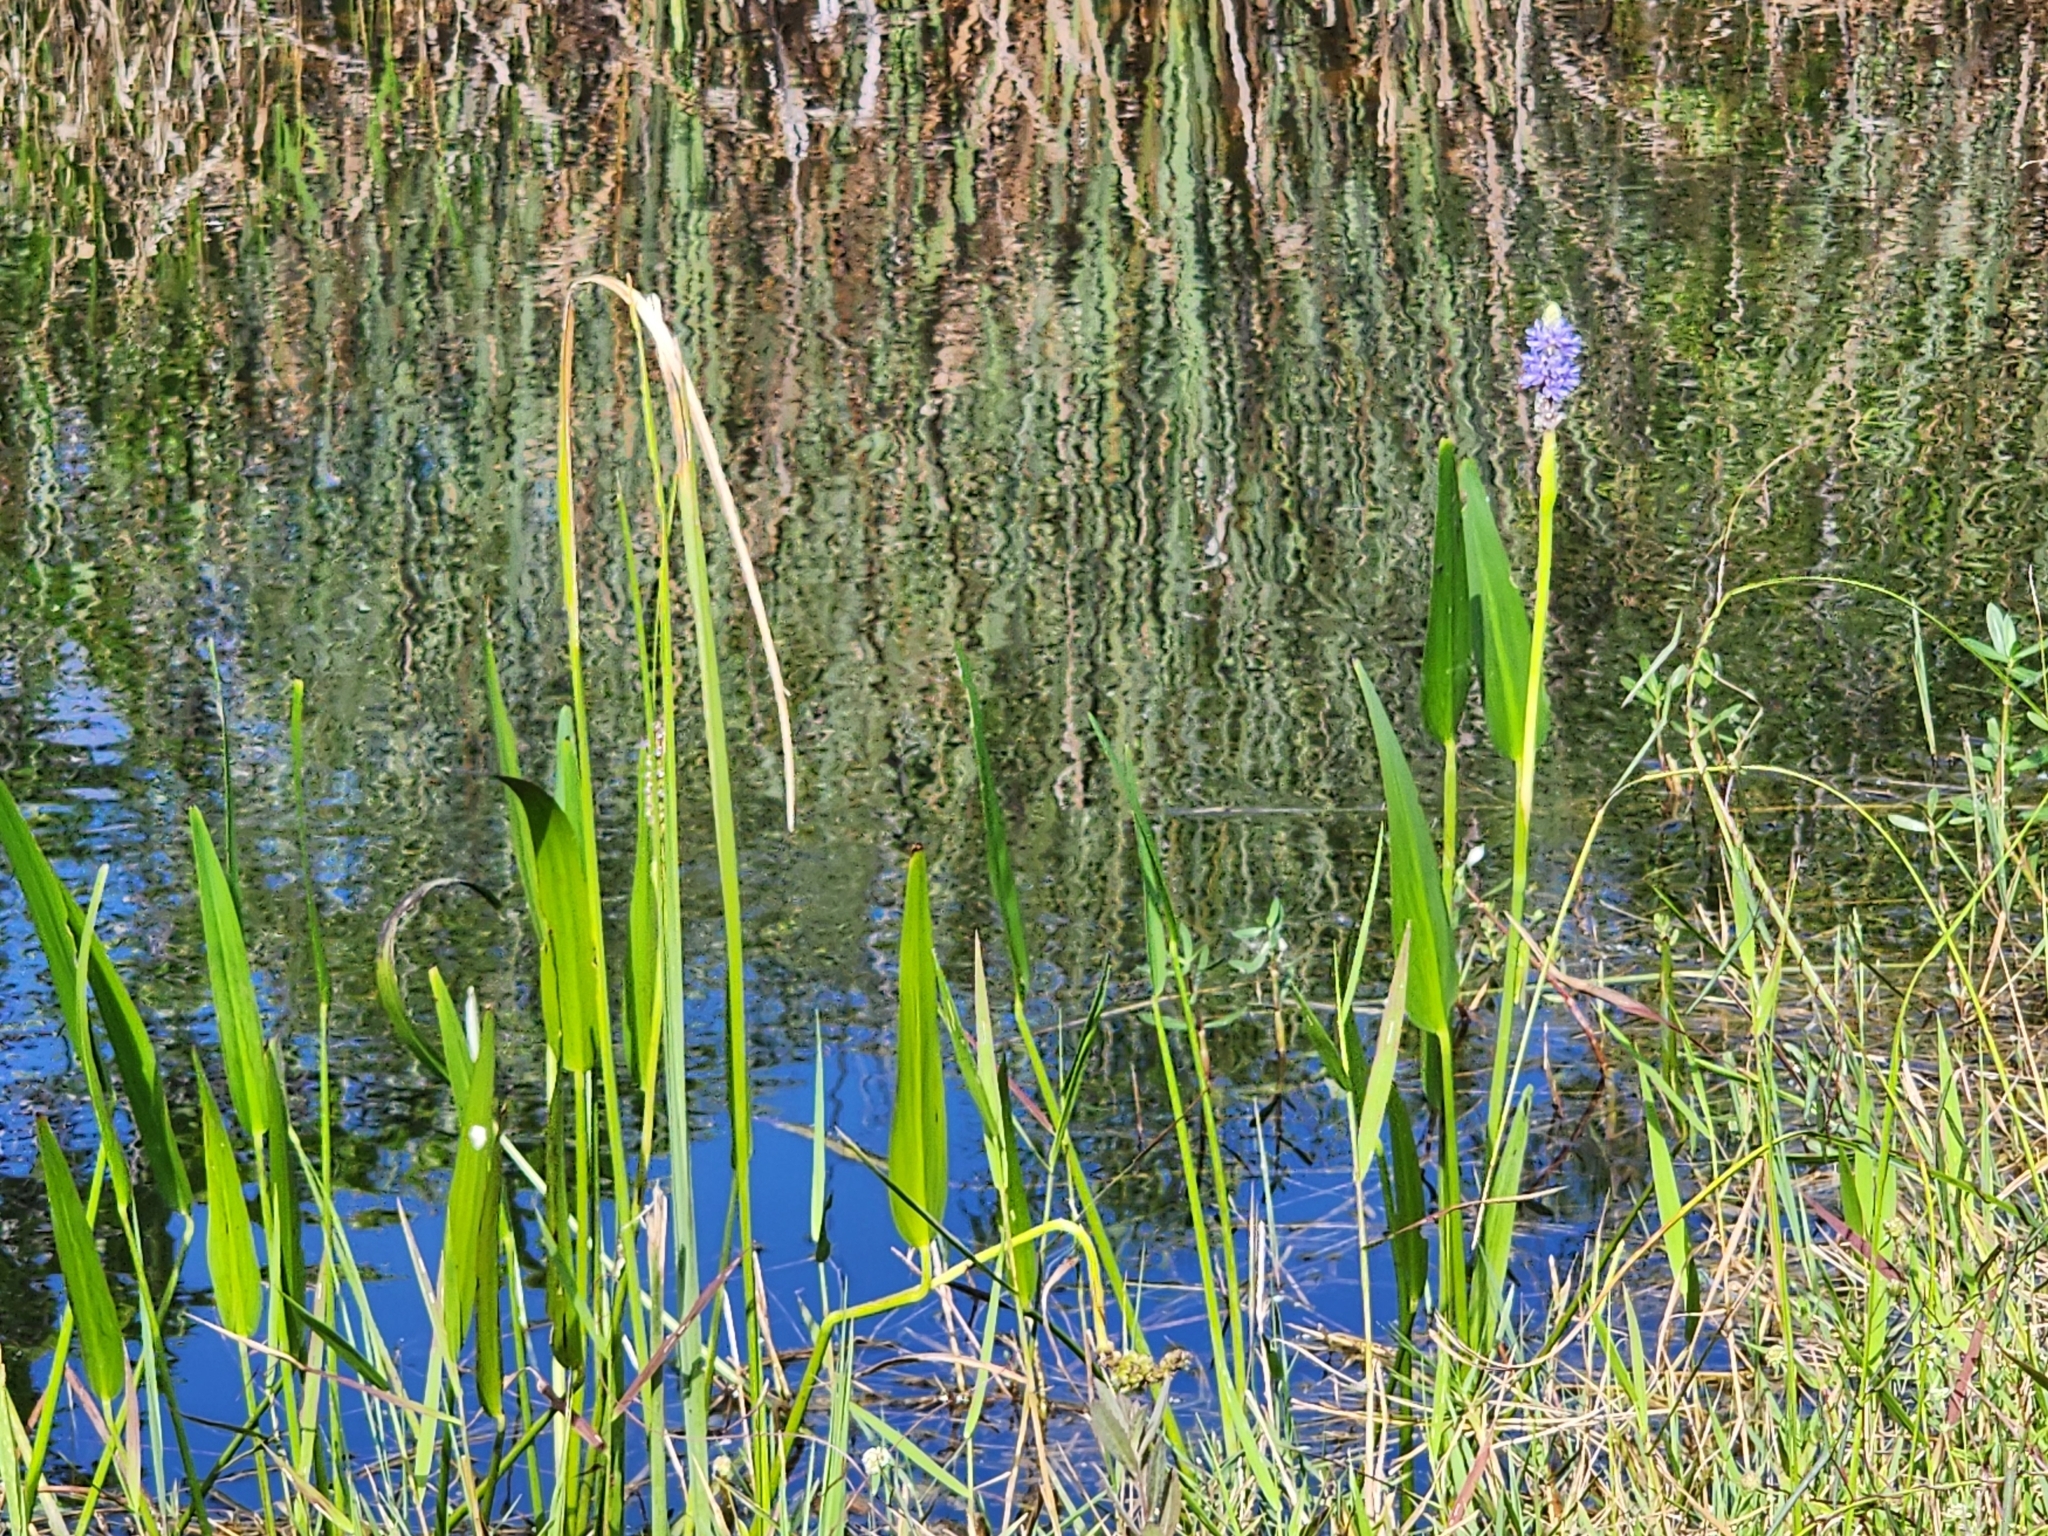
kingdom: Plantae
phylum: Tracheophyta
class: Liliopsida
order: Commelinales
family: Pontederiaceae
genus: Pontederia
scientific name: Pontederia cordata
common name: Pickerelweed
